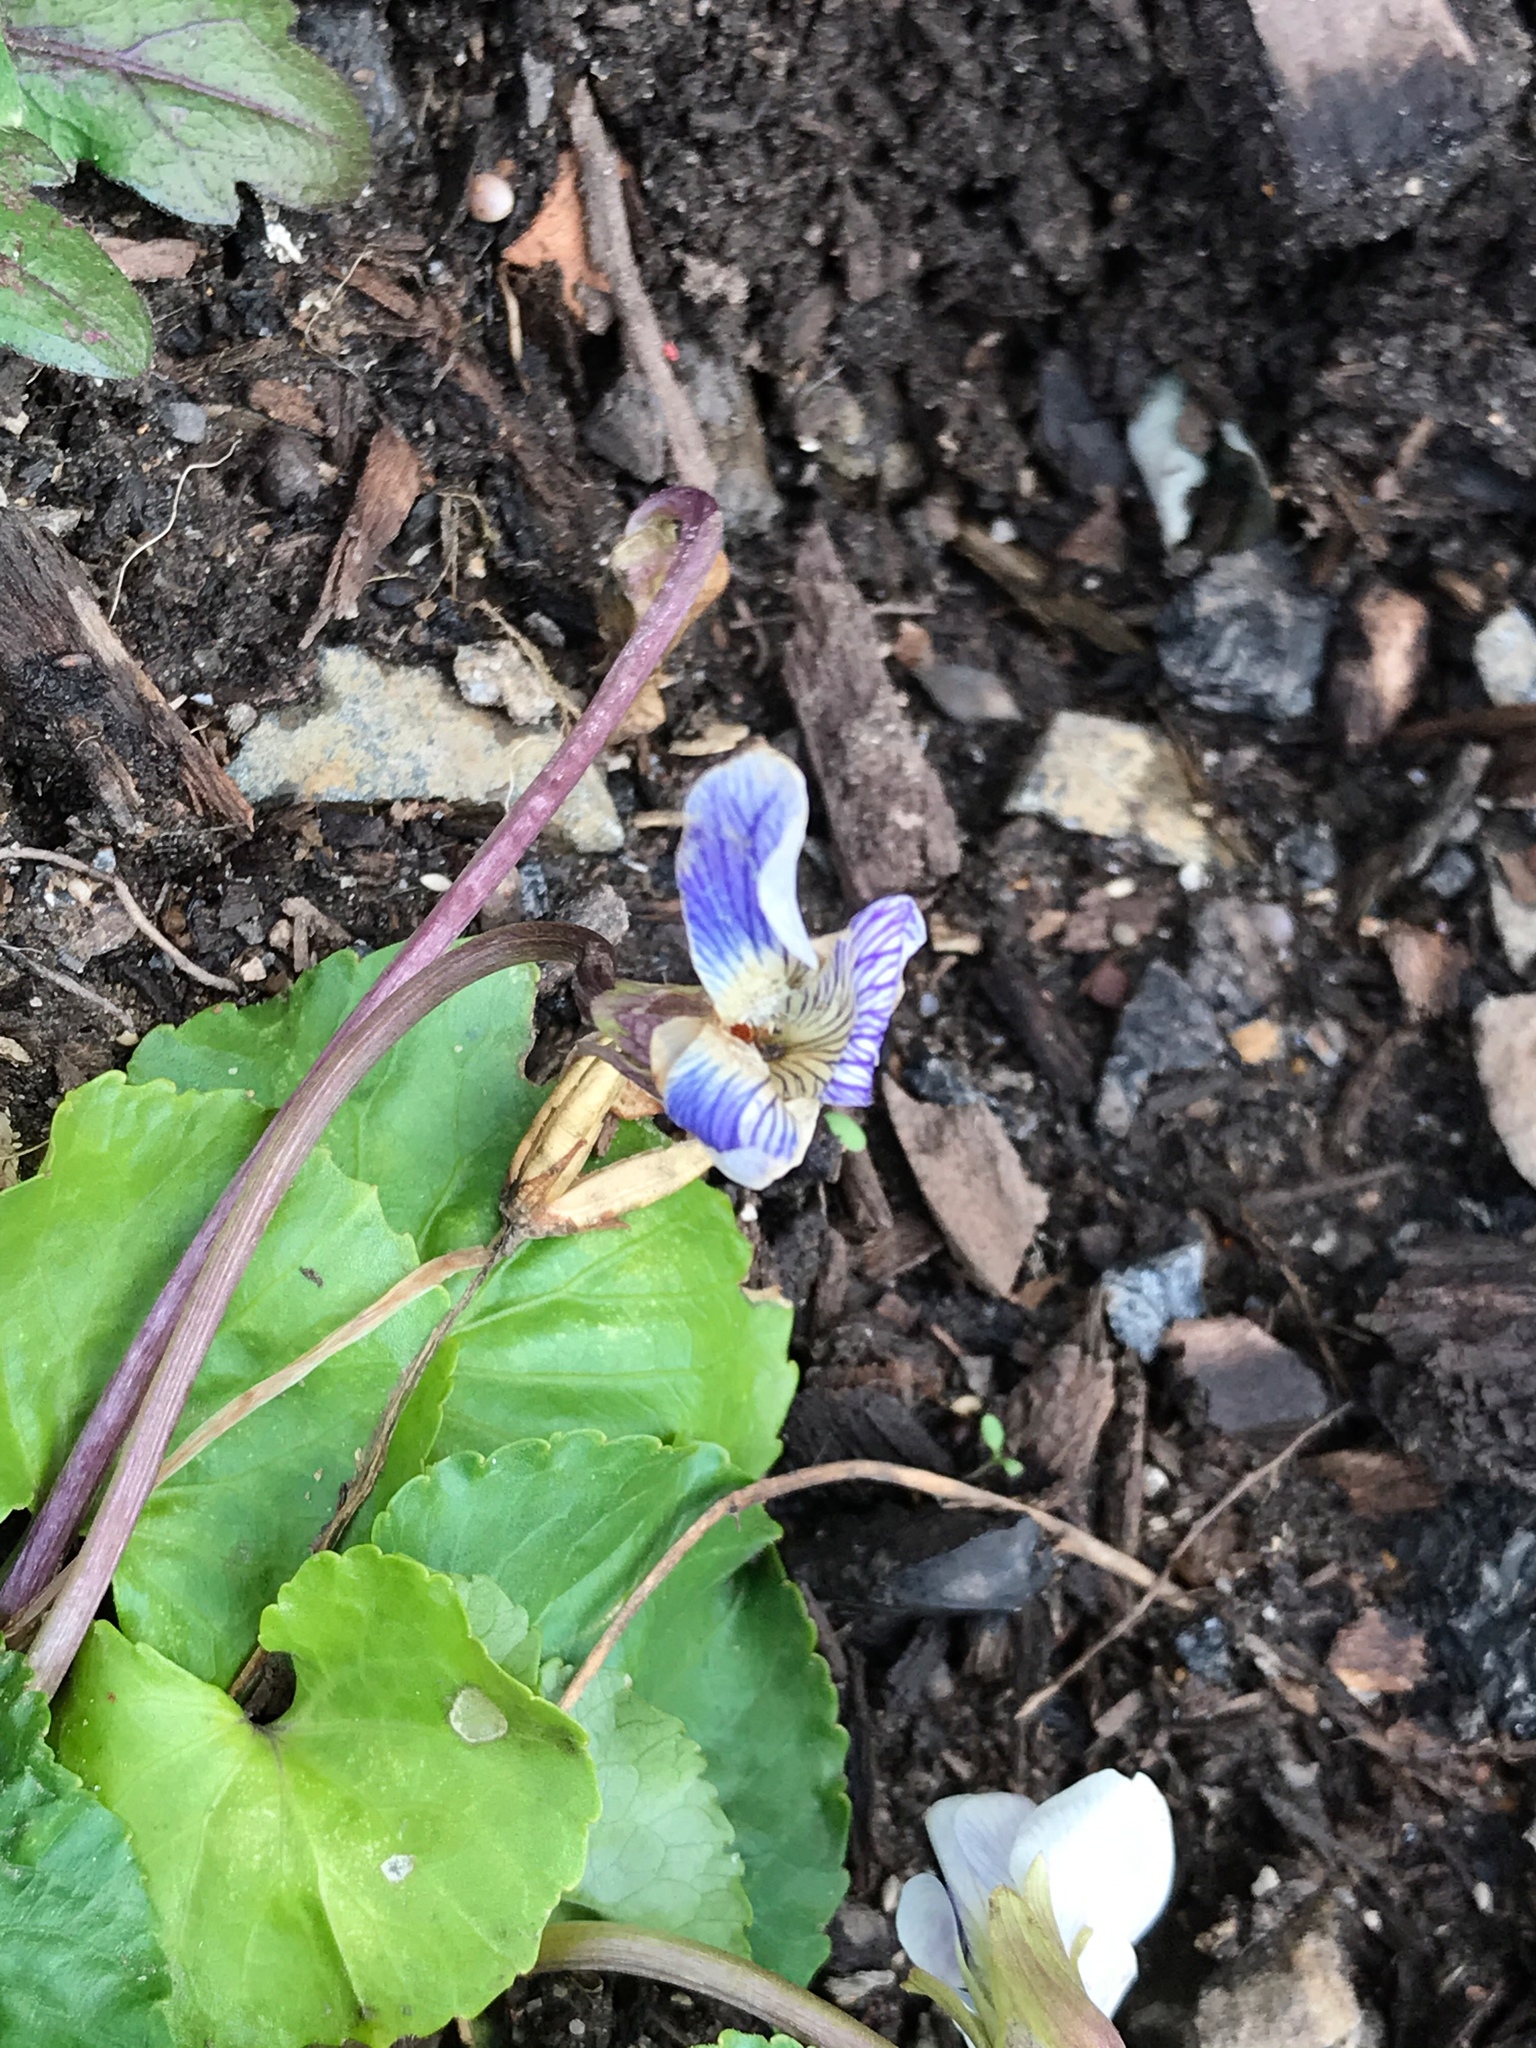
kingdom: Plantae
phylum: Tracheophyta
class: Magnoliopsida
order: Malpighiales
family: Violaceae
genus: Viola
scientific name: Viola sororia
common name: Dooryard violet
